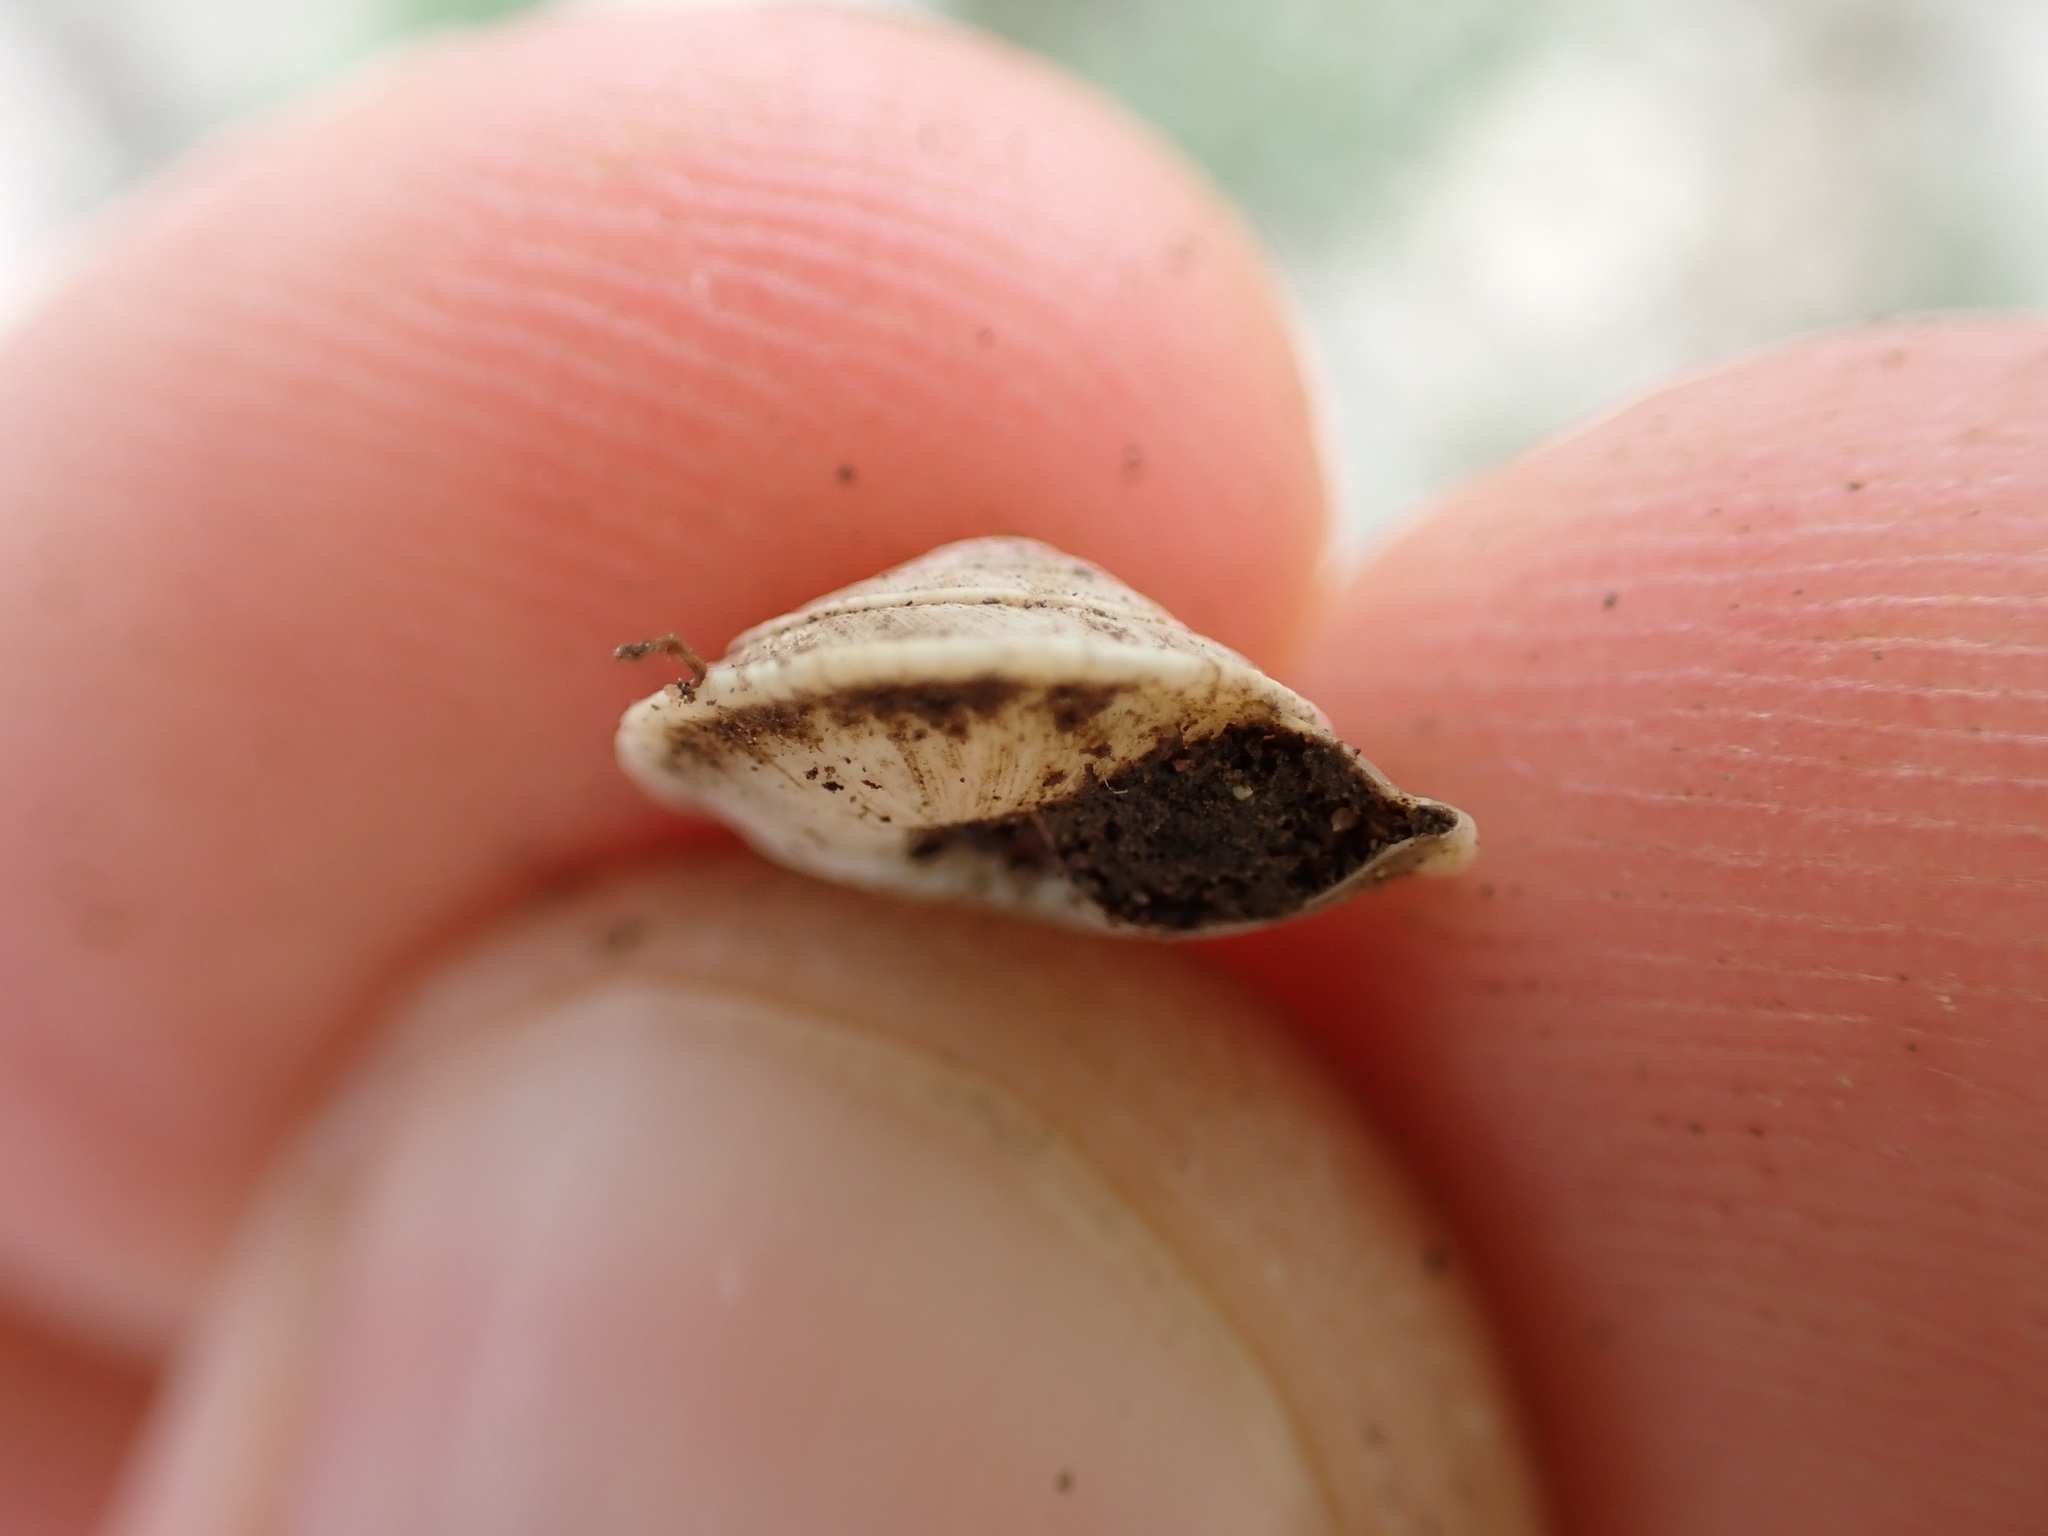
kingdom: Animalia
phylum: Mollusca
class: Gastropoda
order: Stylommatophora
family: Geomitridae
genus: Trochoidea
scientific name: Trochoidea elegans
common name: Elegant helicellid
